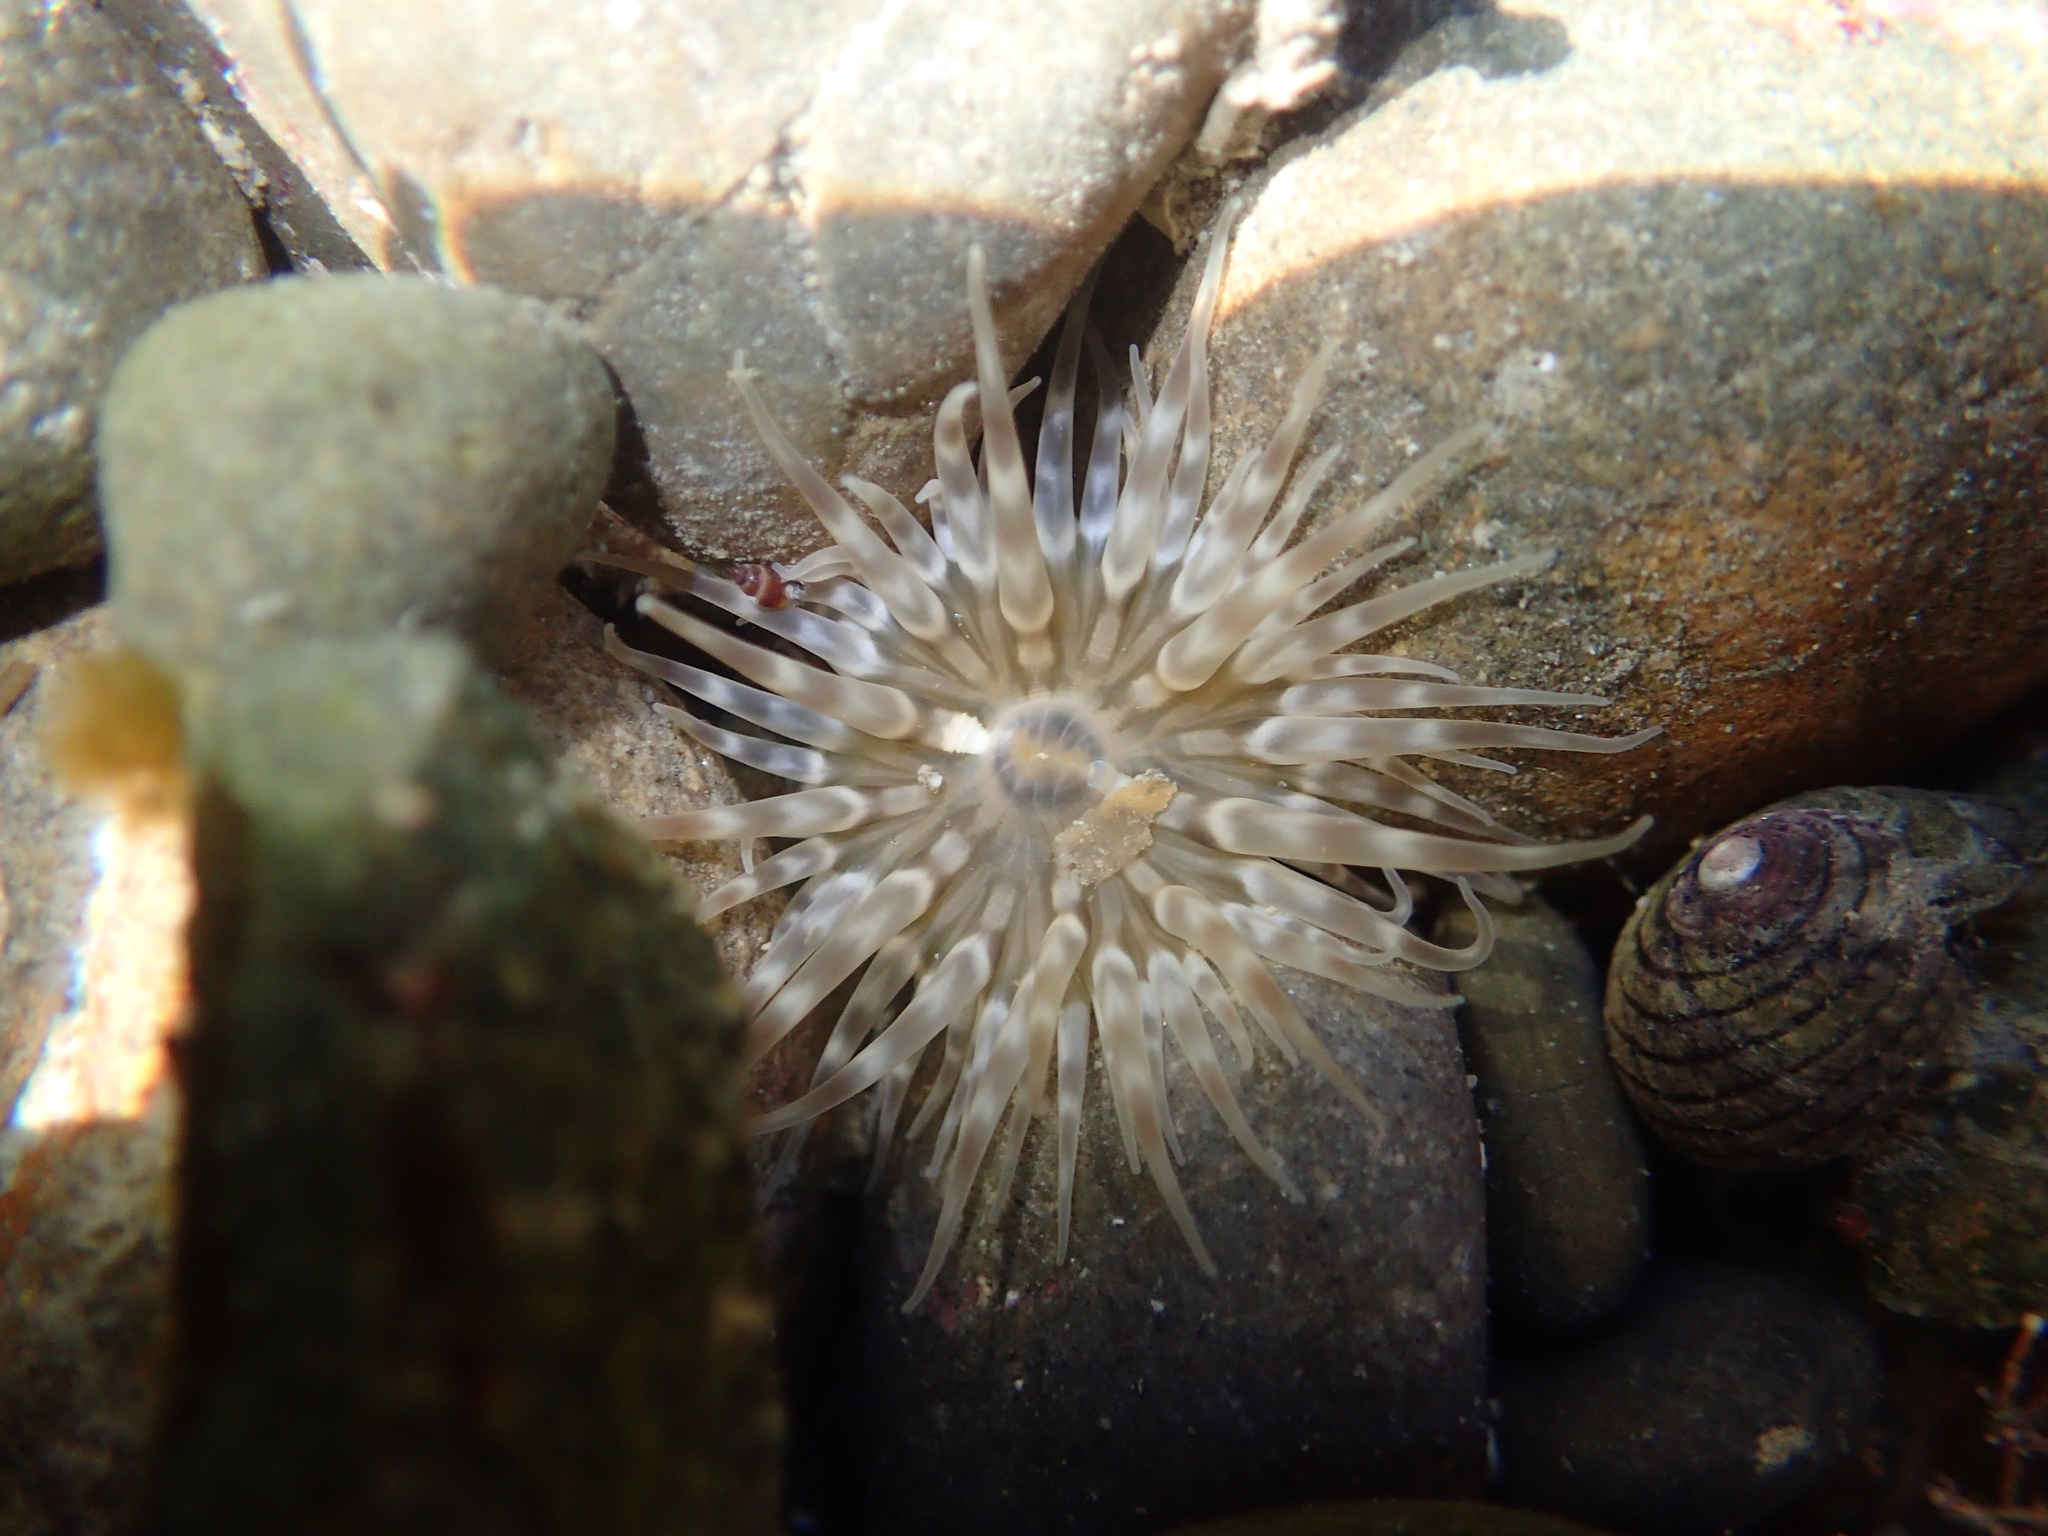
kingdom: Animalia
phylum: Cnidaria
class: Anthozoa
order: Actiniaria
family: Isanthidae
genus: Isoparactis
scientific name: Isoparactis ferax
